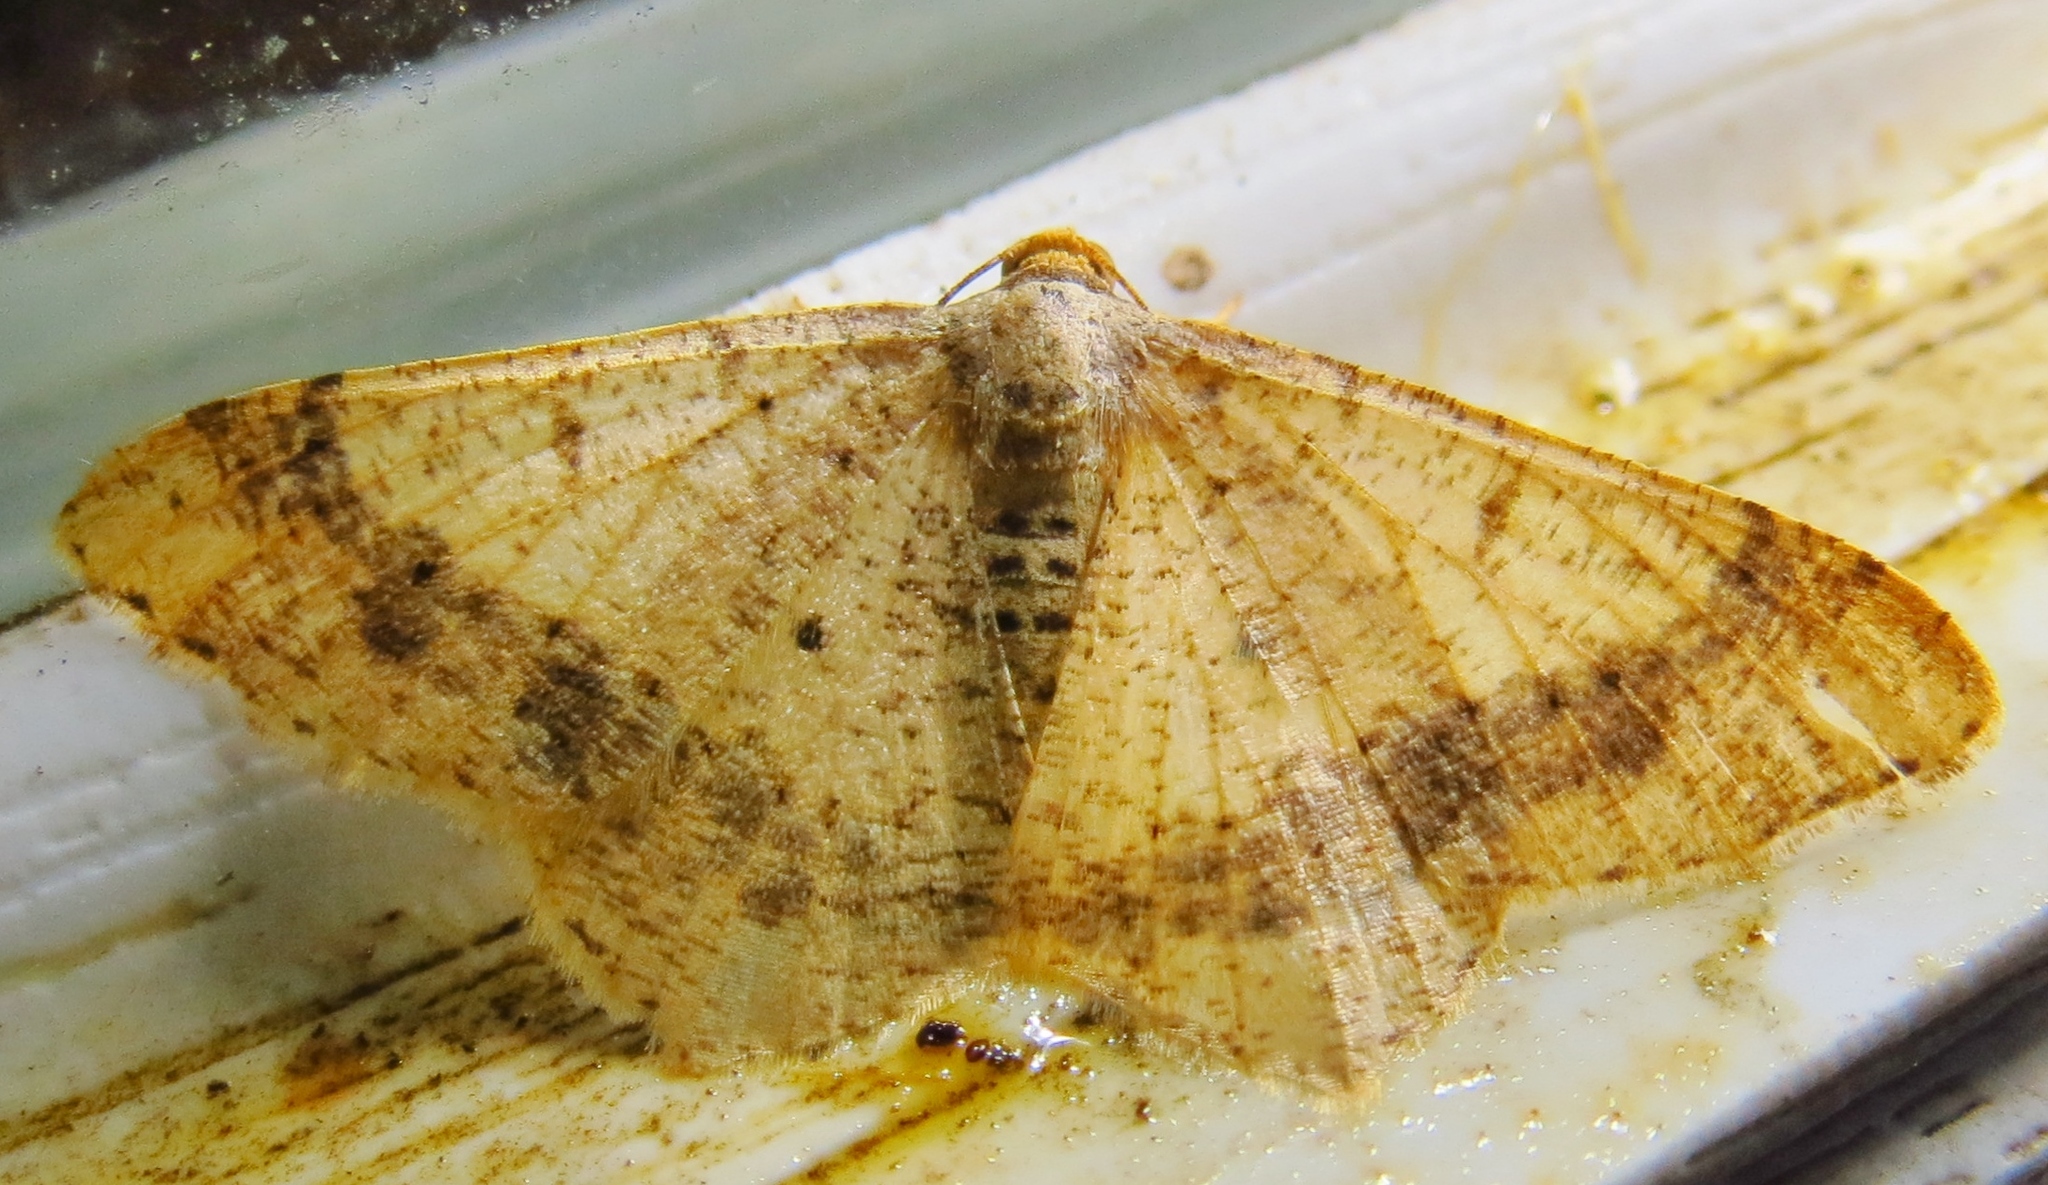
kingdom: Animalia
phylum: Arthropoda
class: Insecta
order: Lepidoptera
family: Geometridae
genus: Macaria
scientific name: Macaria abydata
